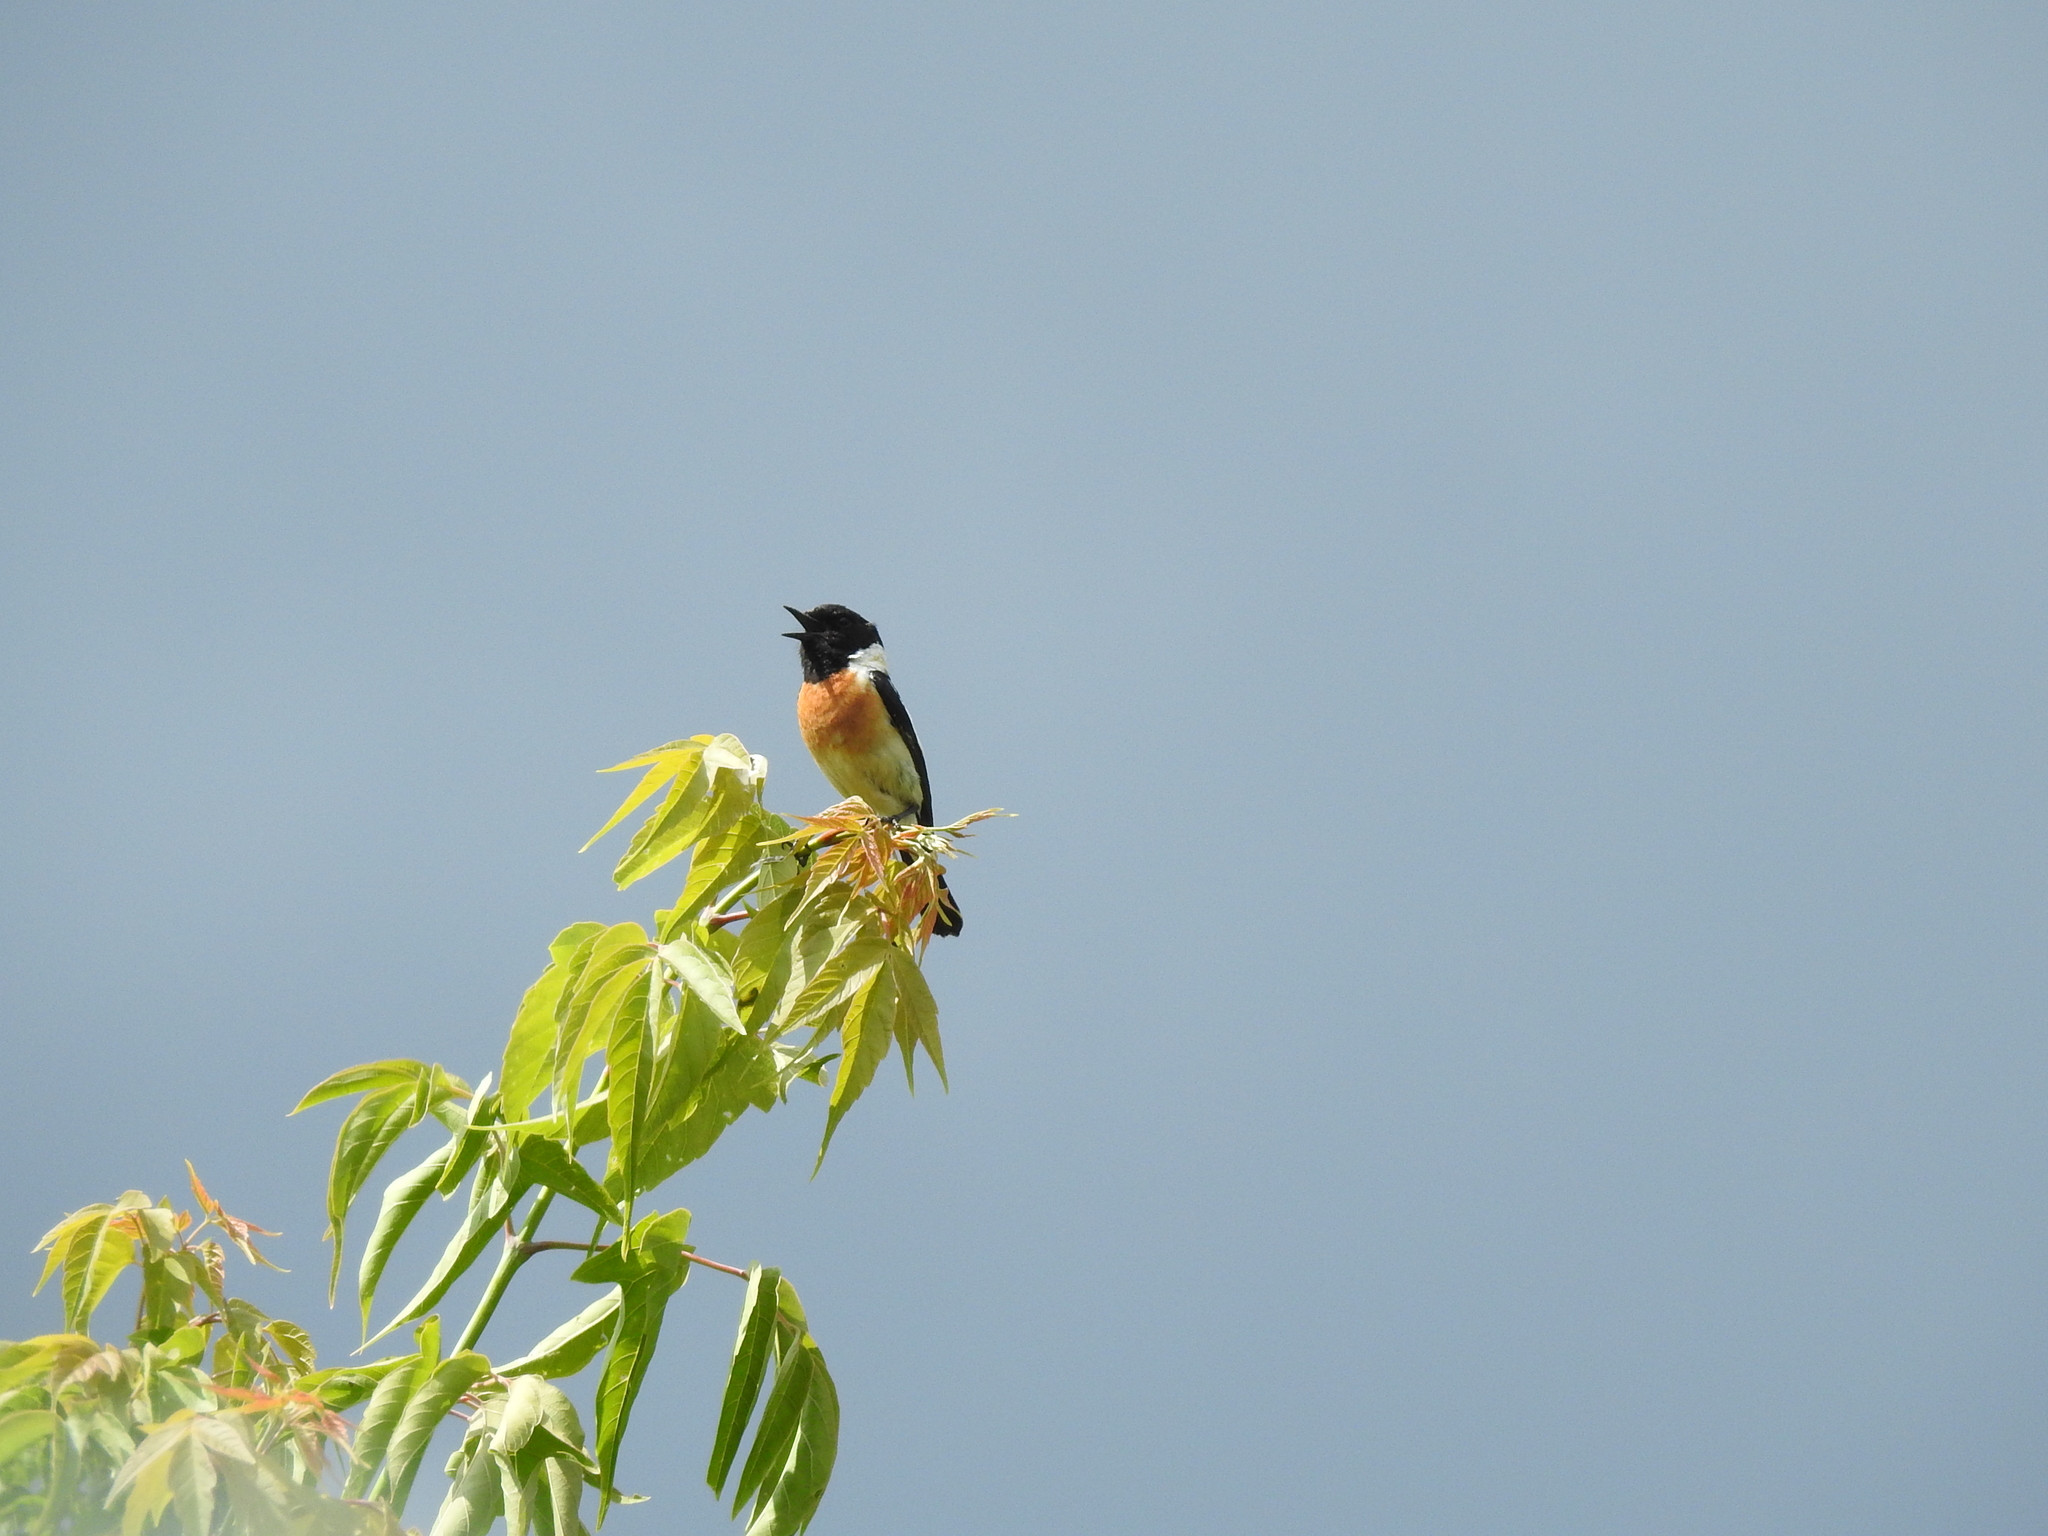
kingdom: Animalia
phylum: Chordata
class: Aves
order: Passeriformes
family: Muscicapidae
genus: Saxicola
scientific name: Saxicola maurus
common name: Siberian stonechat
